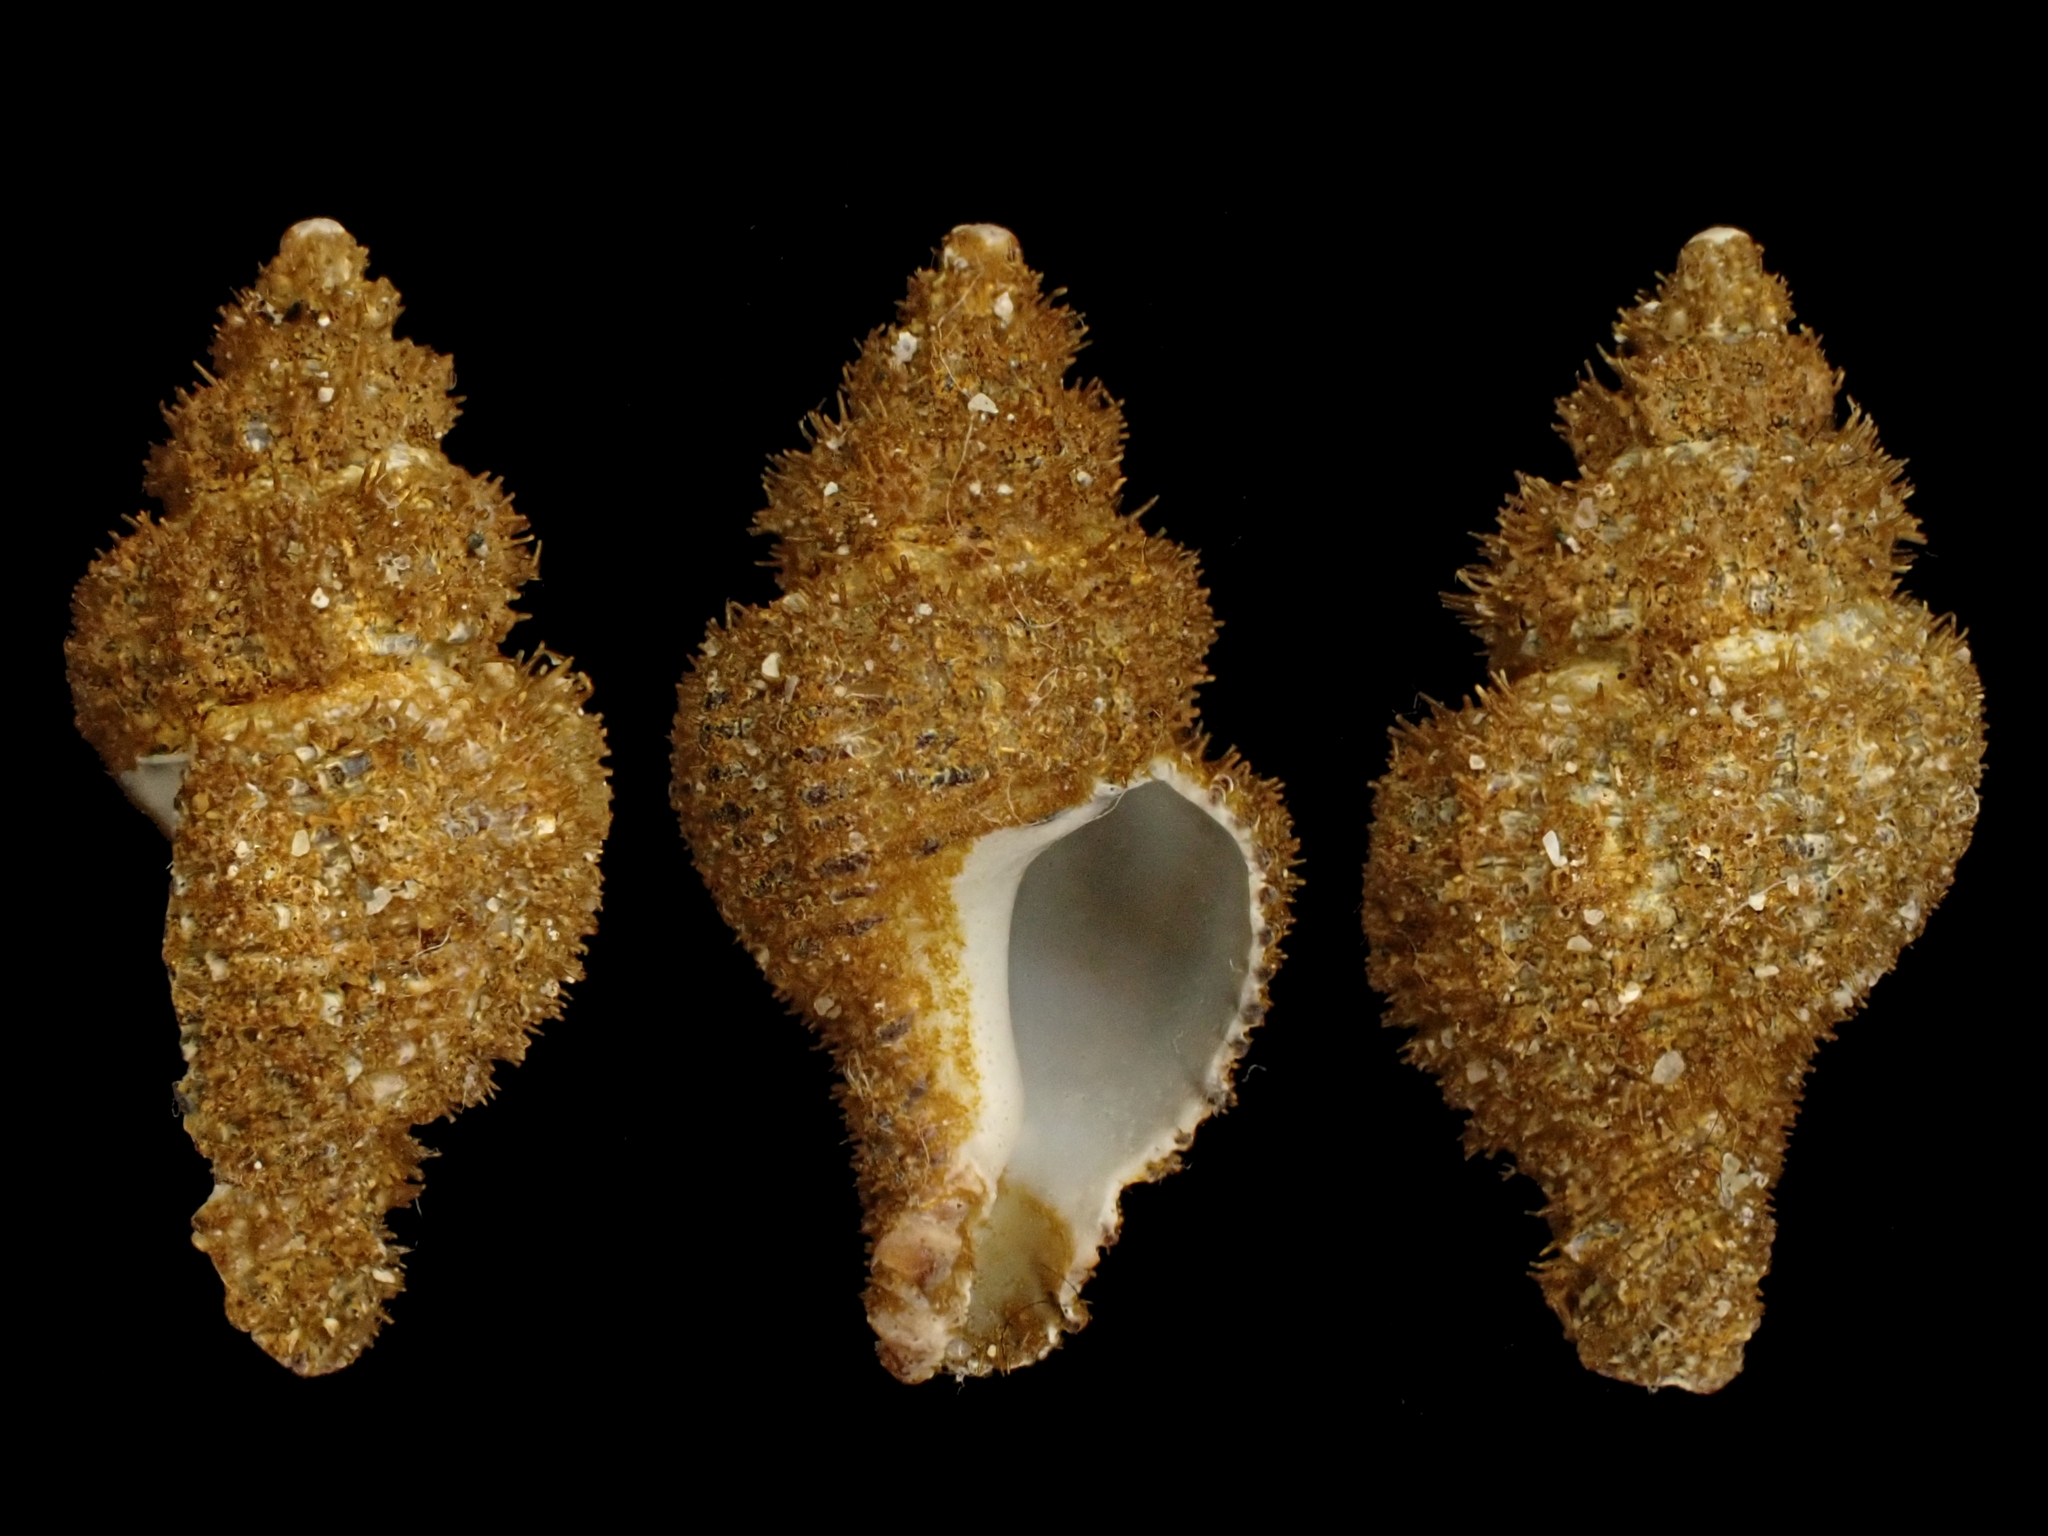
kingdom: Animalia
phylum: Mollusca
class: Gastropoda
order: Neogastropoda
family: Muricidae
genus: Murexsul
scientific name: Murexsul mariae
